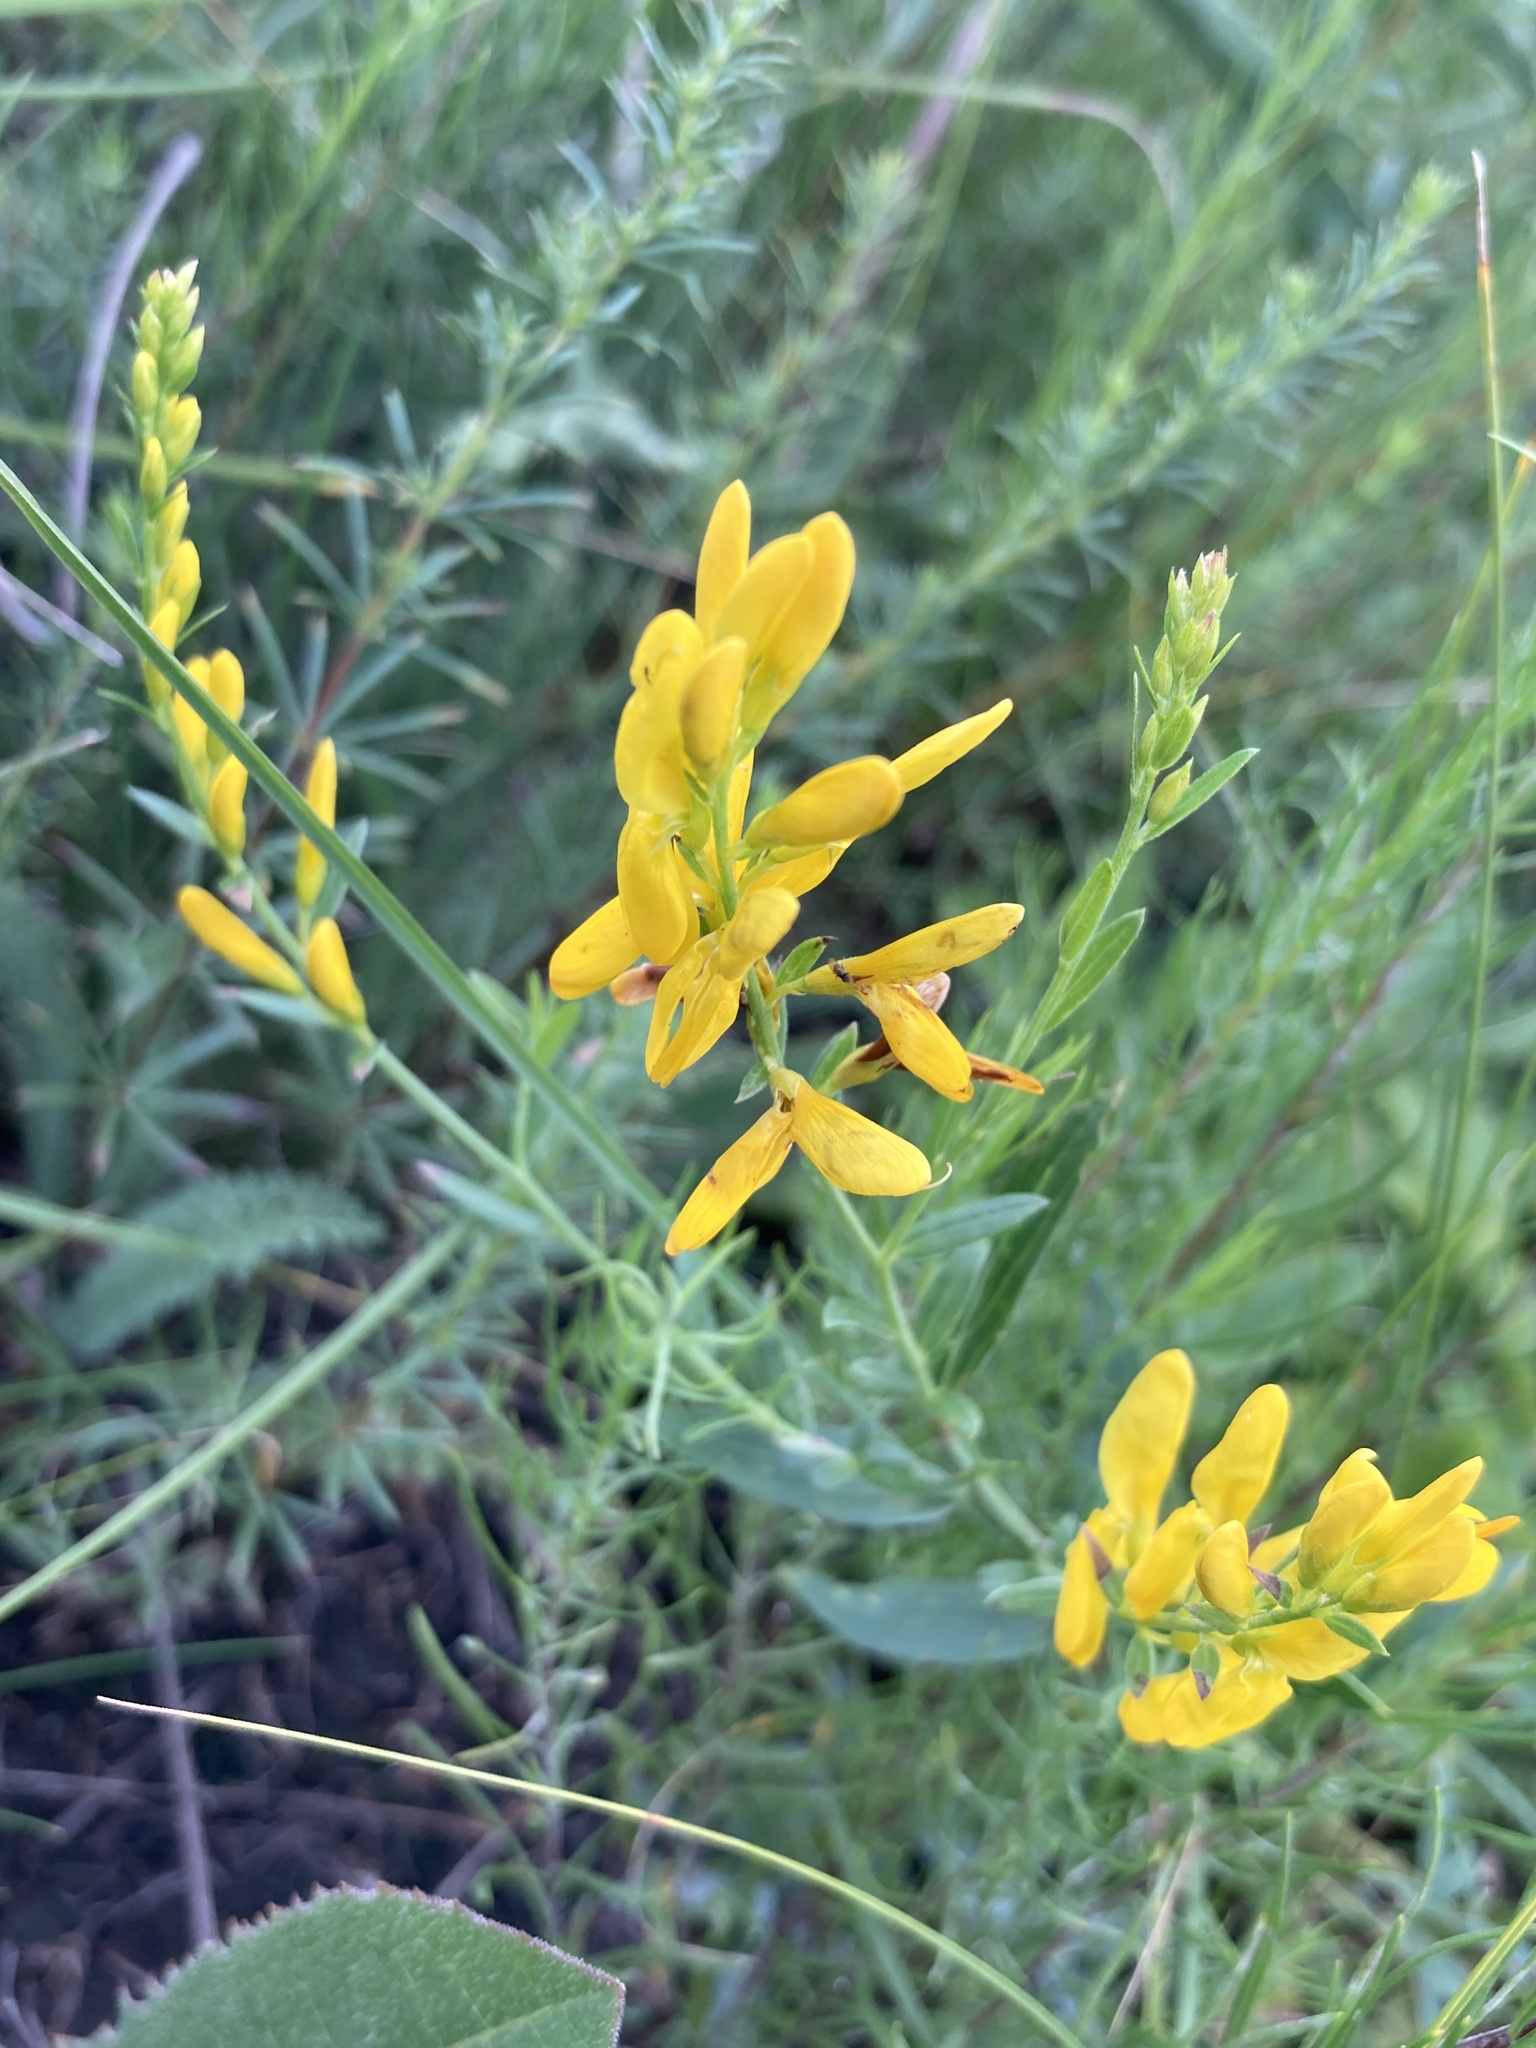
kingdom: Plantae
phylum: Tracheophyta
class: Magnoliopsida
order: Fabales
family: Fabaceae
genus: Genista
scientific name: Genista tinctoria
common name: Dyer's greenweed
